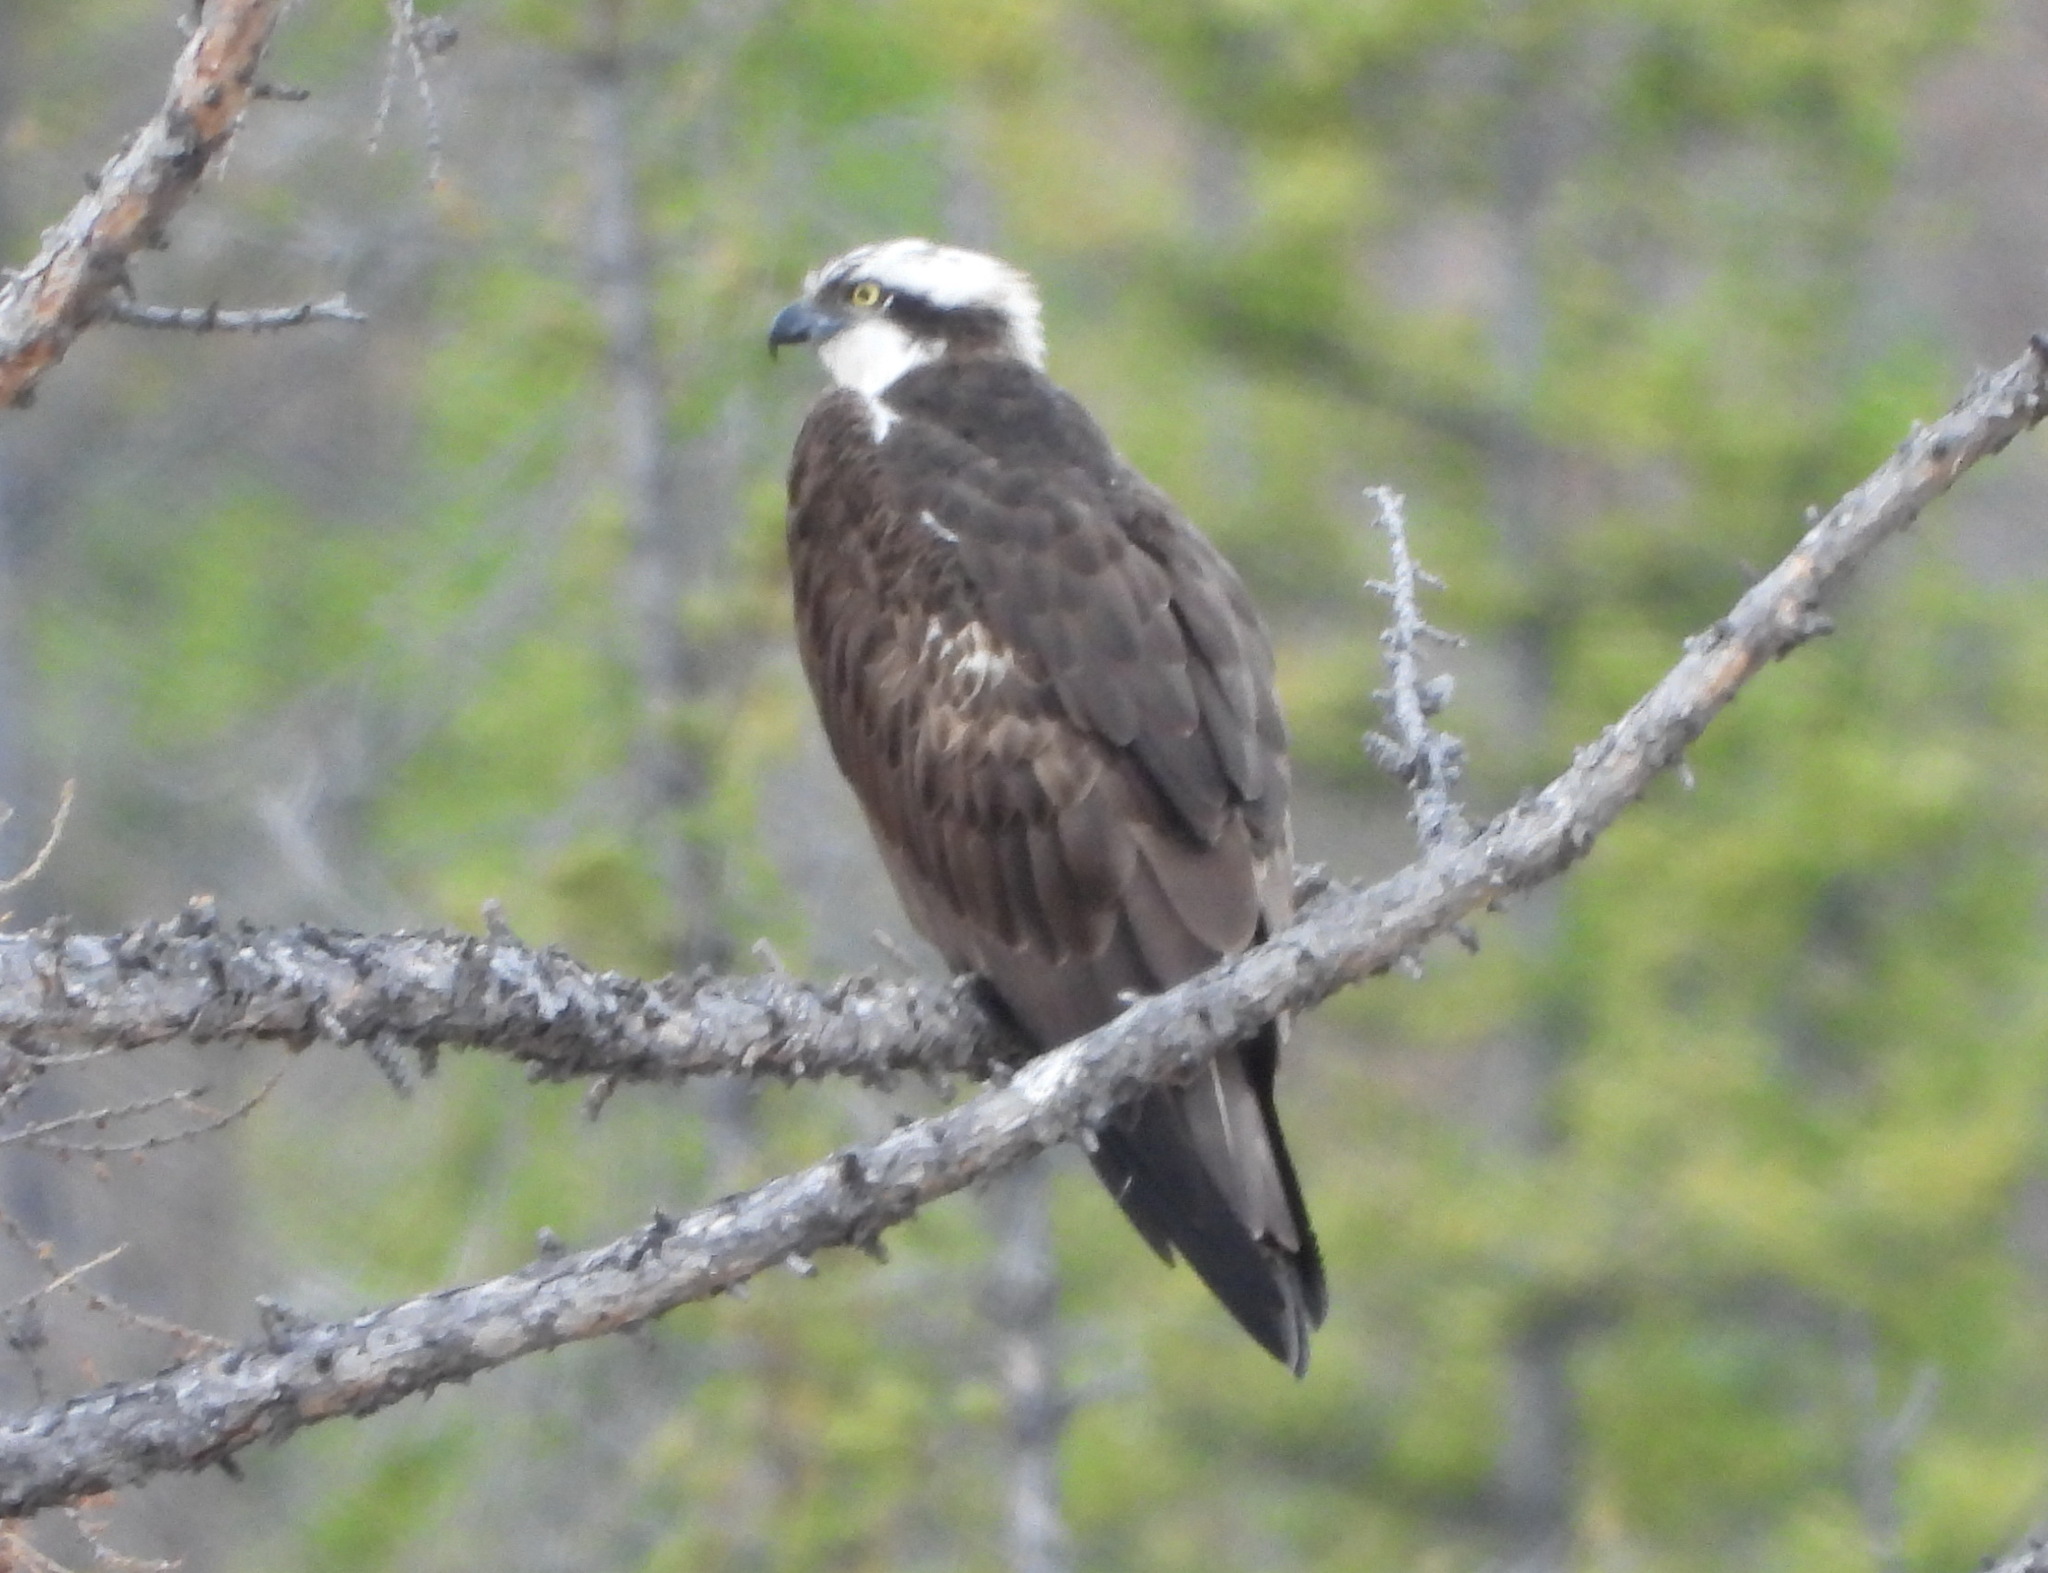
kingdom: Animalia
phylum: Chordata
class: Aves
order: Accipitriformes
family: Pandionidae
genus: Pandion
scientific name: Pandion haliaetus
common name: Osprey
